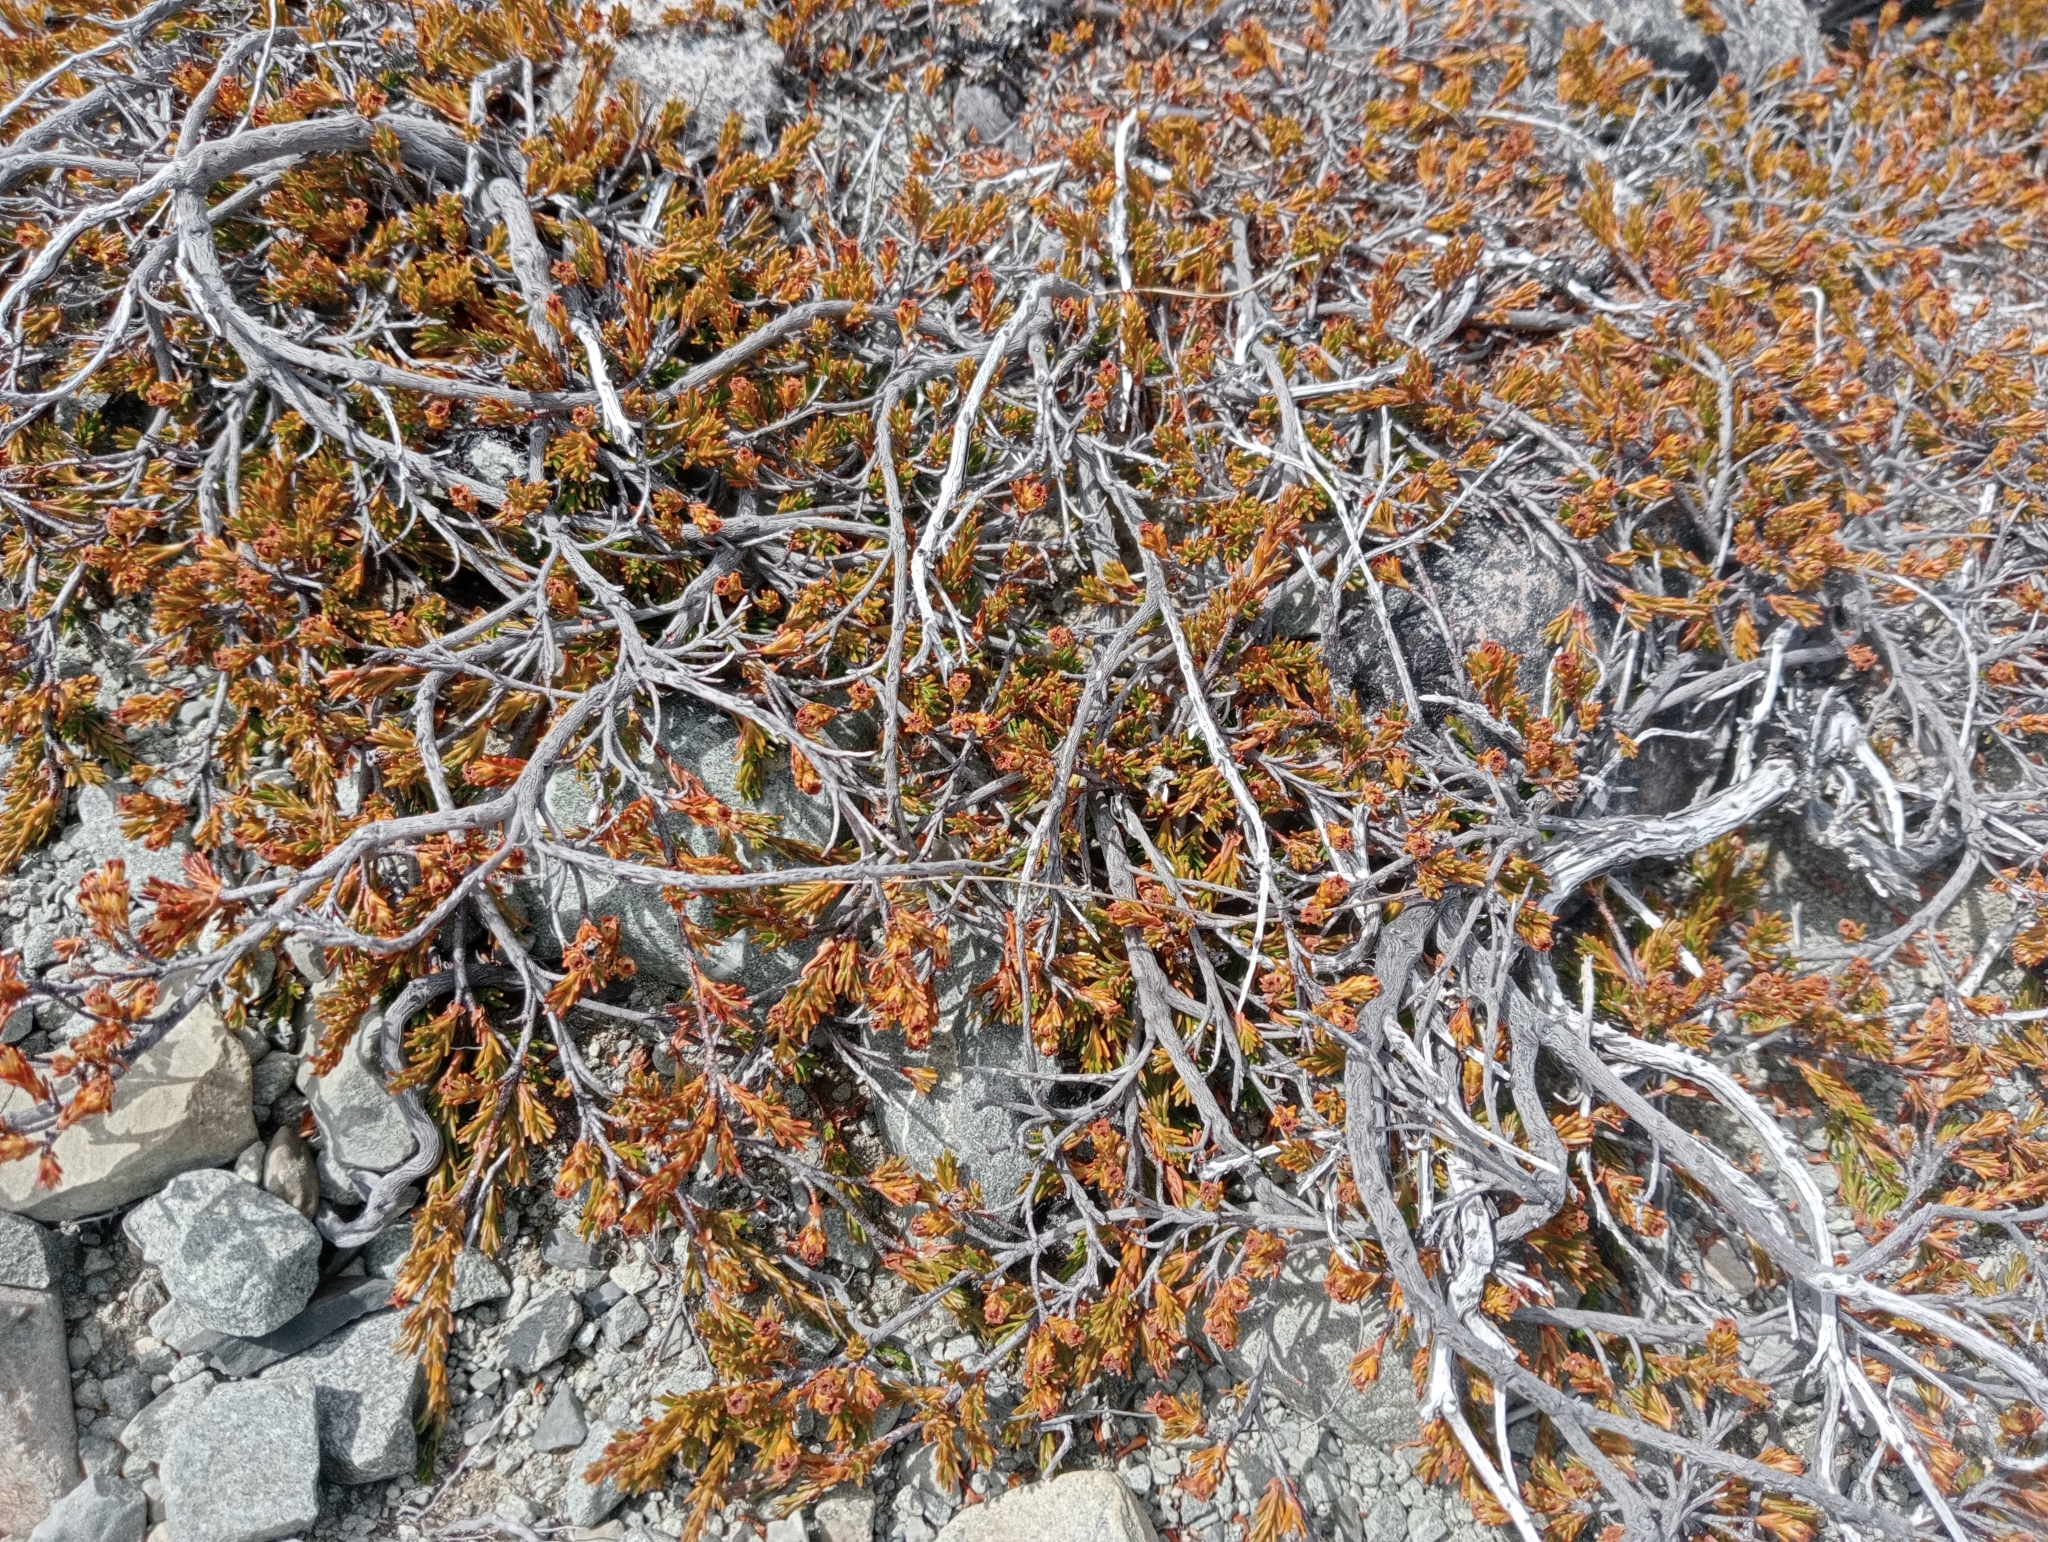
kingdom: Plantae
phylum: Tracheophyta
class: Magnoliopsida
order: Ericales
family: Ericaceae
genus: Dracophyllum
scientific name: Dracophyllum pronum
